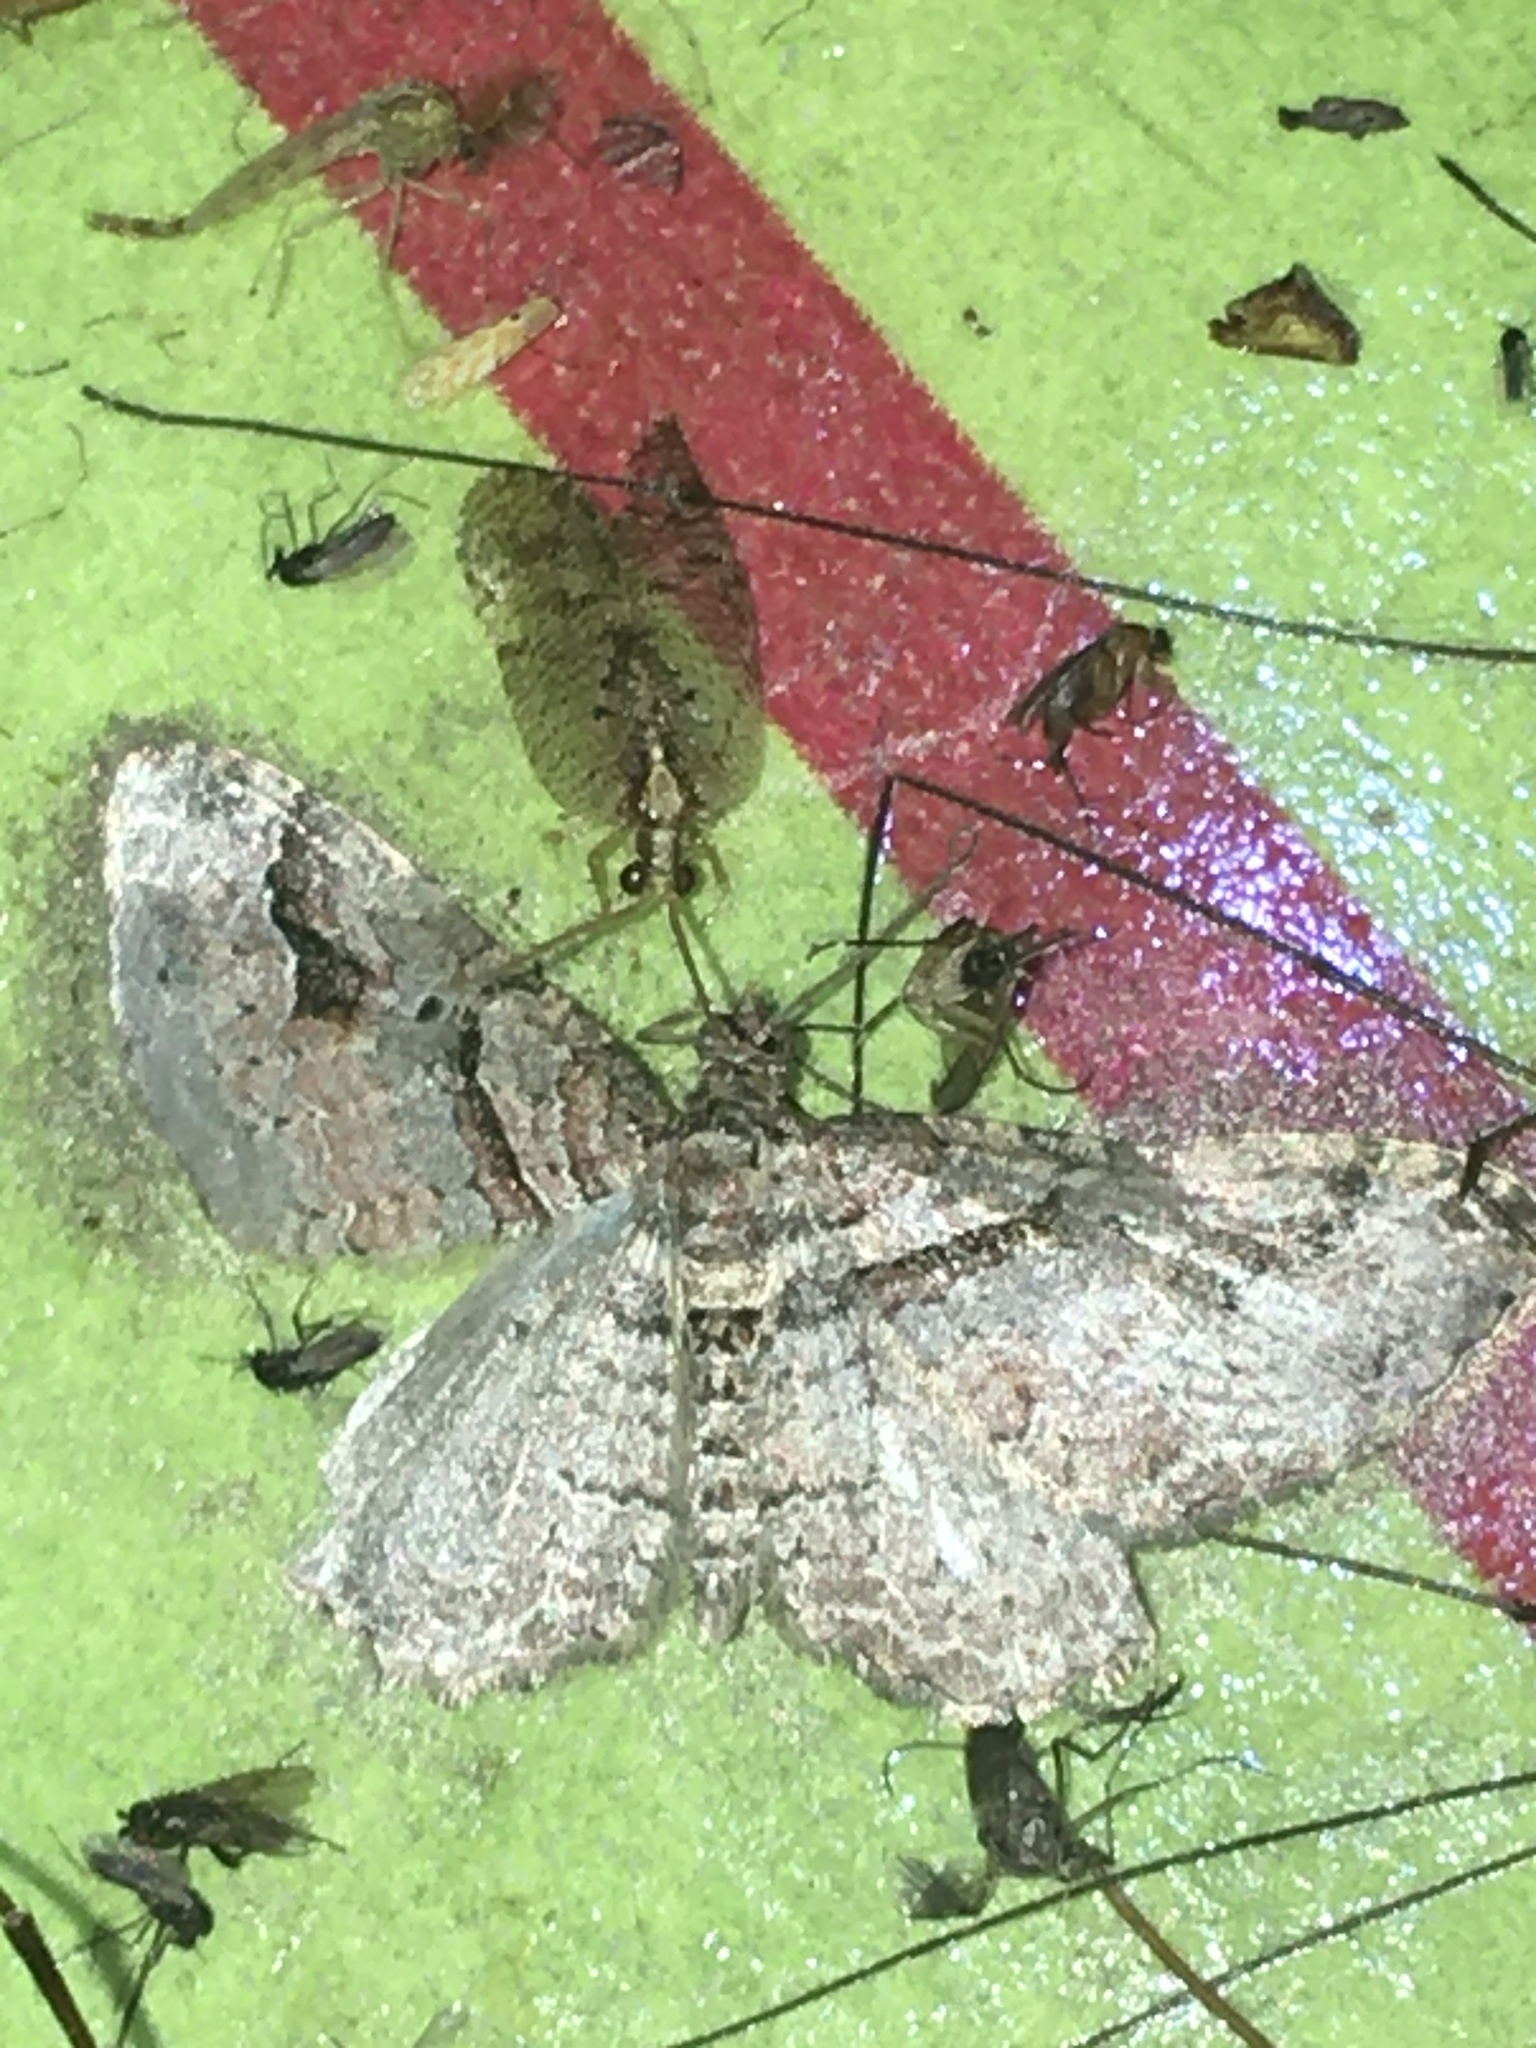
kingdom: Animalia
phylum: Arthropoda
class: Insecta
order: Lepidoptera
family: Geometridae
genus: Costaconvexa
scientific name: Costaconvexa centrostrigaria
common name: Bent-line carpet
